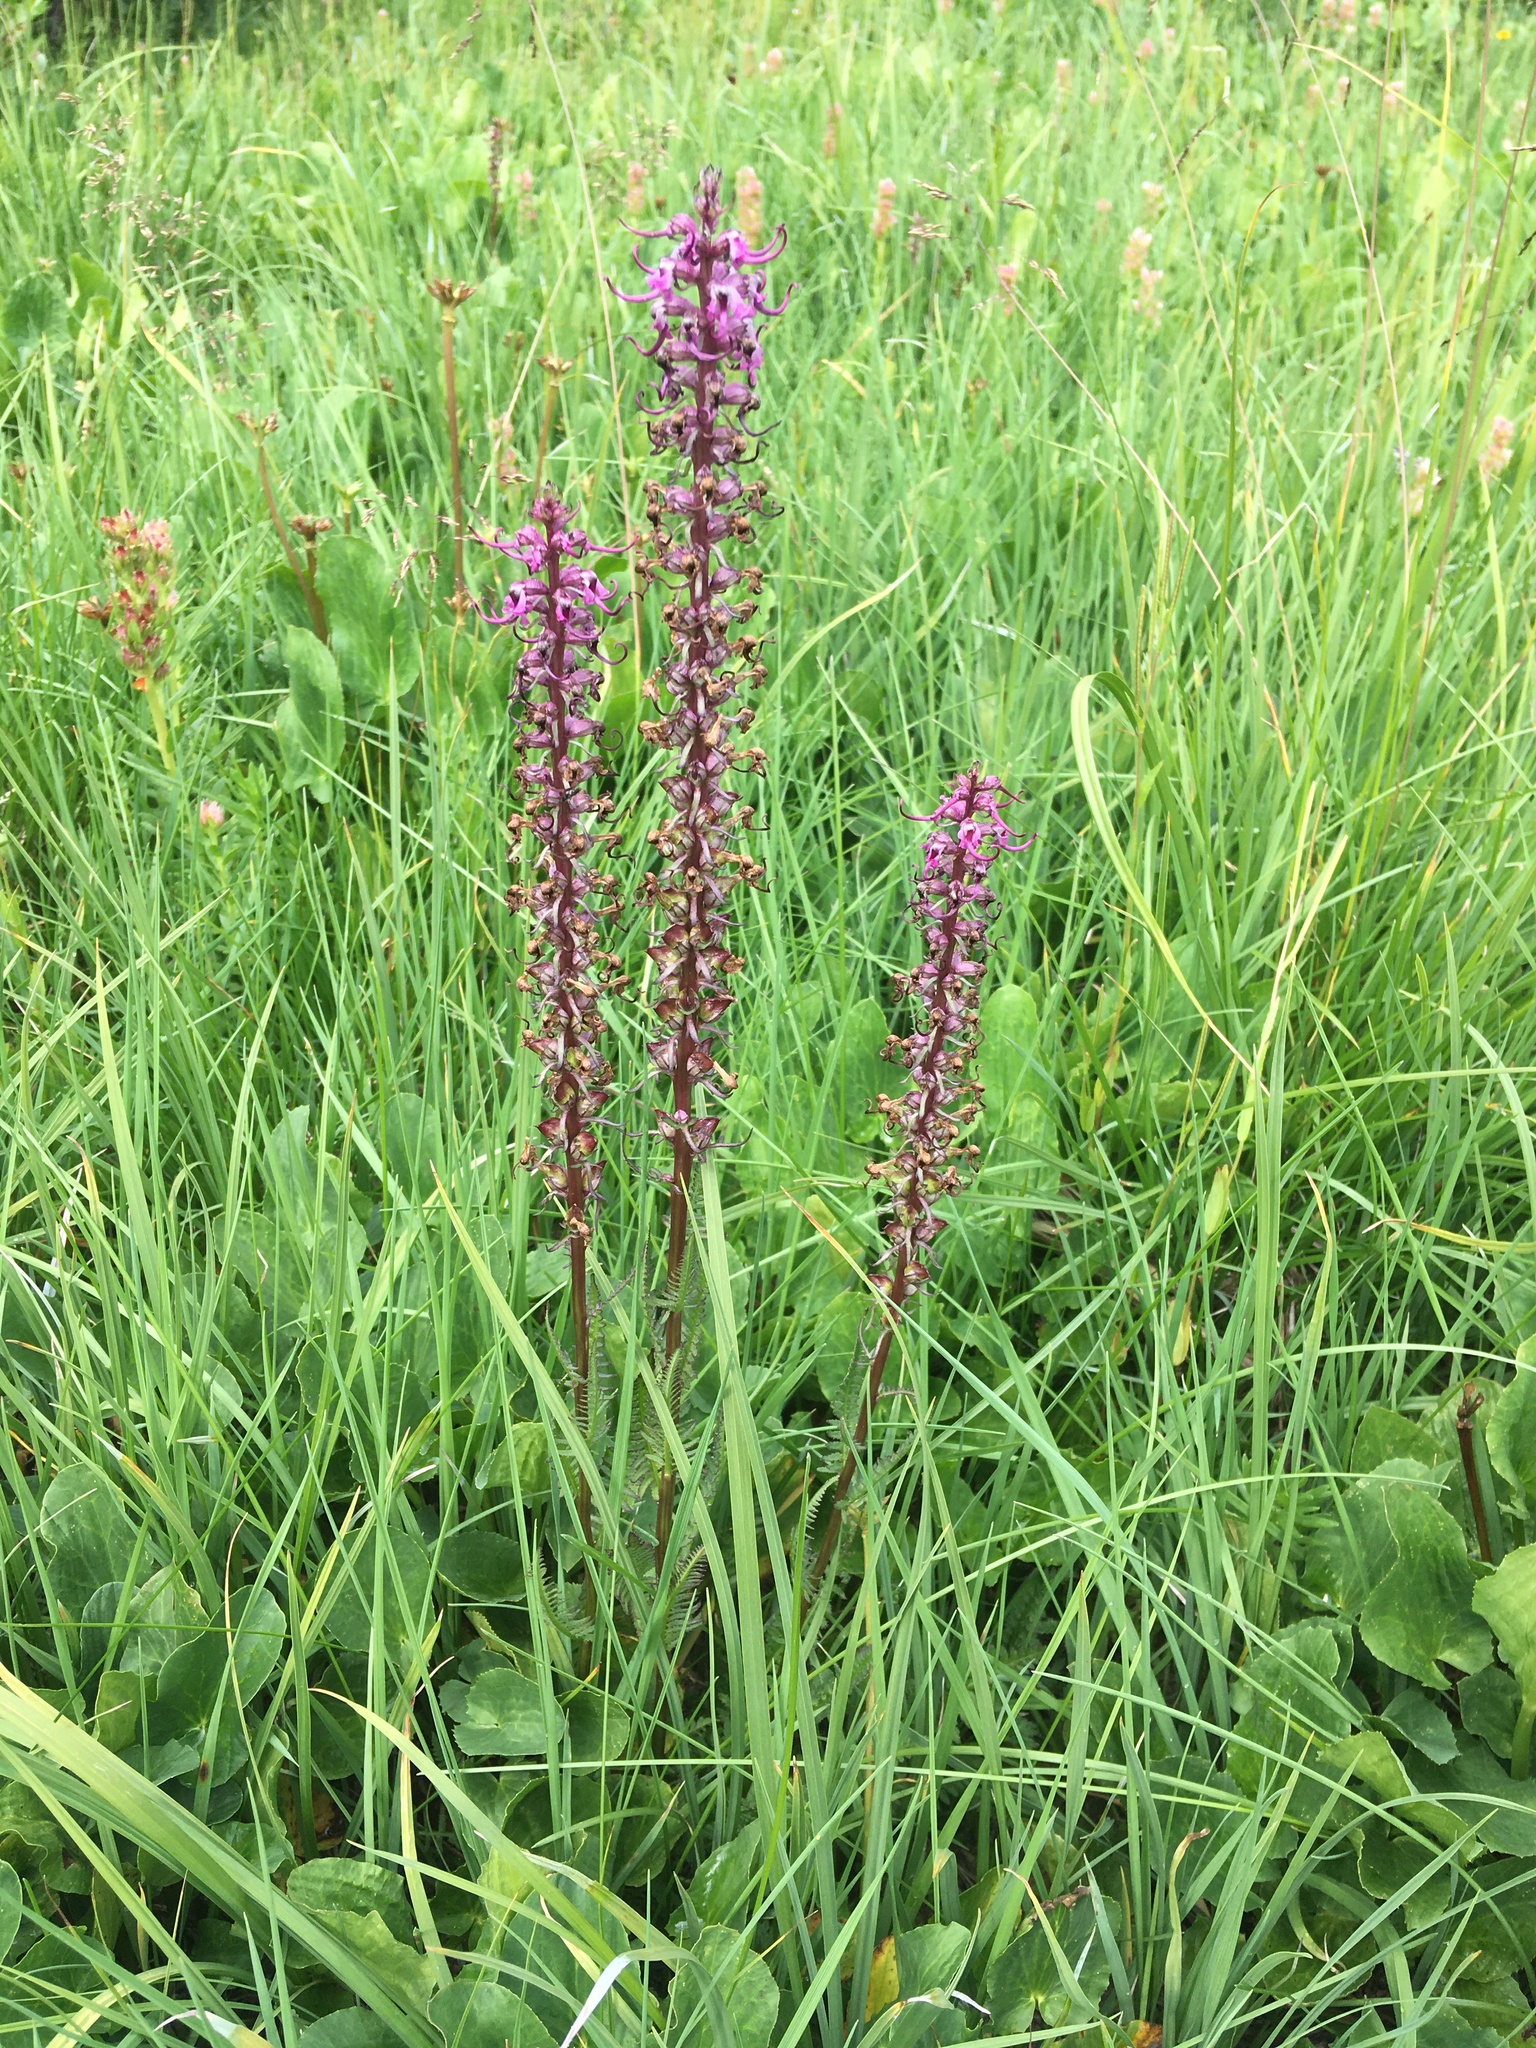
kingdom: Plantae
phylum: Tracheophyta
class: Magnoliopsida
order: Lamiales
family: Orobanchaceae
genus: Pedicularis
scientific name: Pedicularis groenlandica
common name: Elephant's-head
